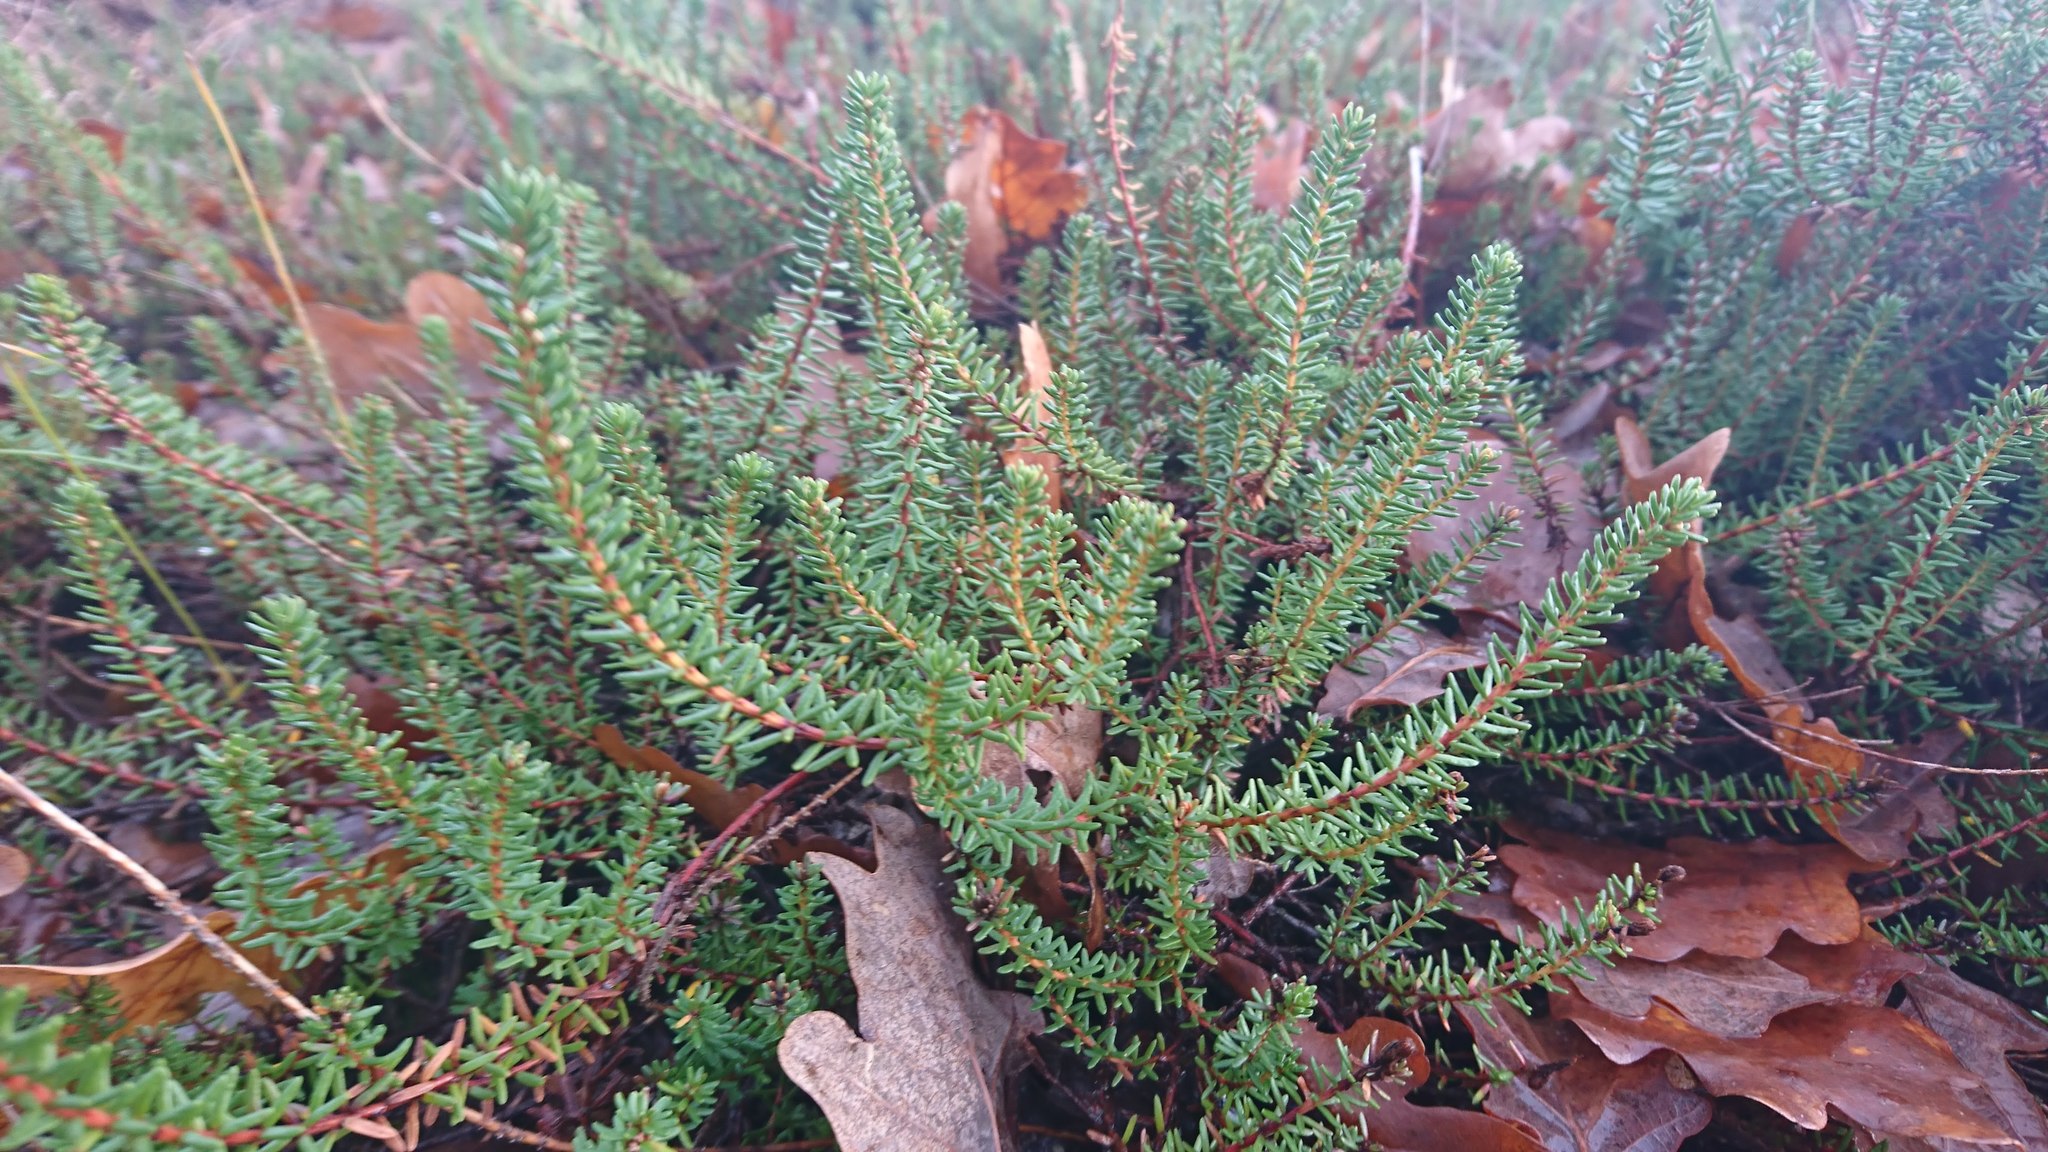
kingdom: Plantae
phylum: Tracheophyta
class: Magnoliopsida
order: Ericales
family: Ericaceae
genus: Empetrum
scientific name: Empetrum nigrum
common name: Black crowberry
